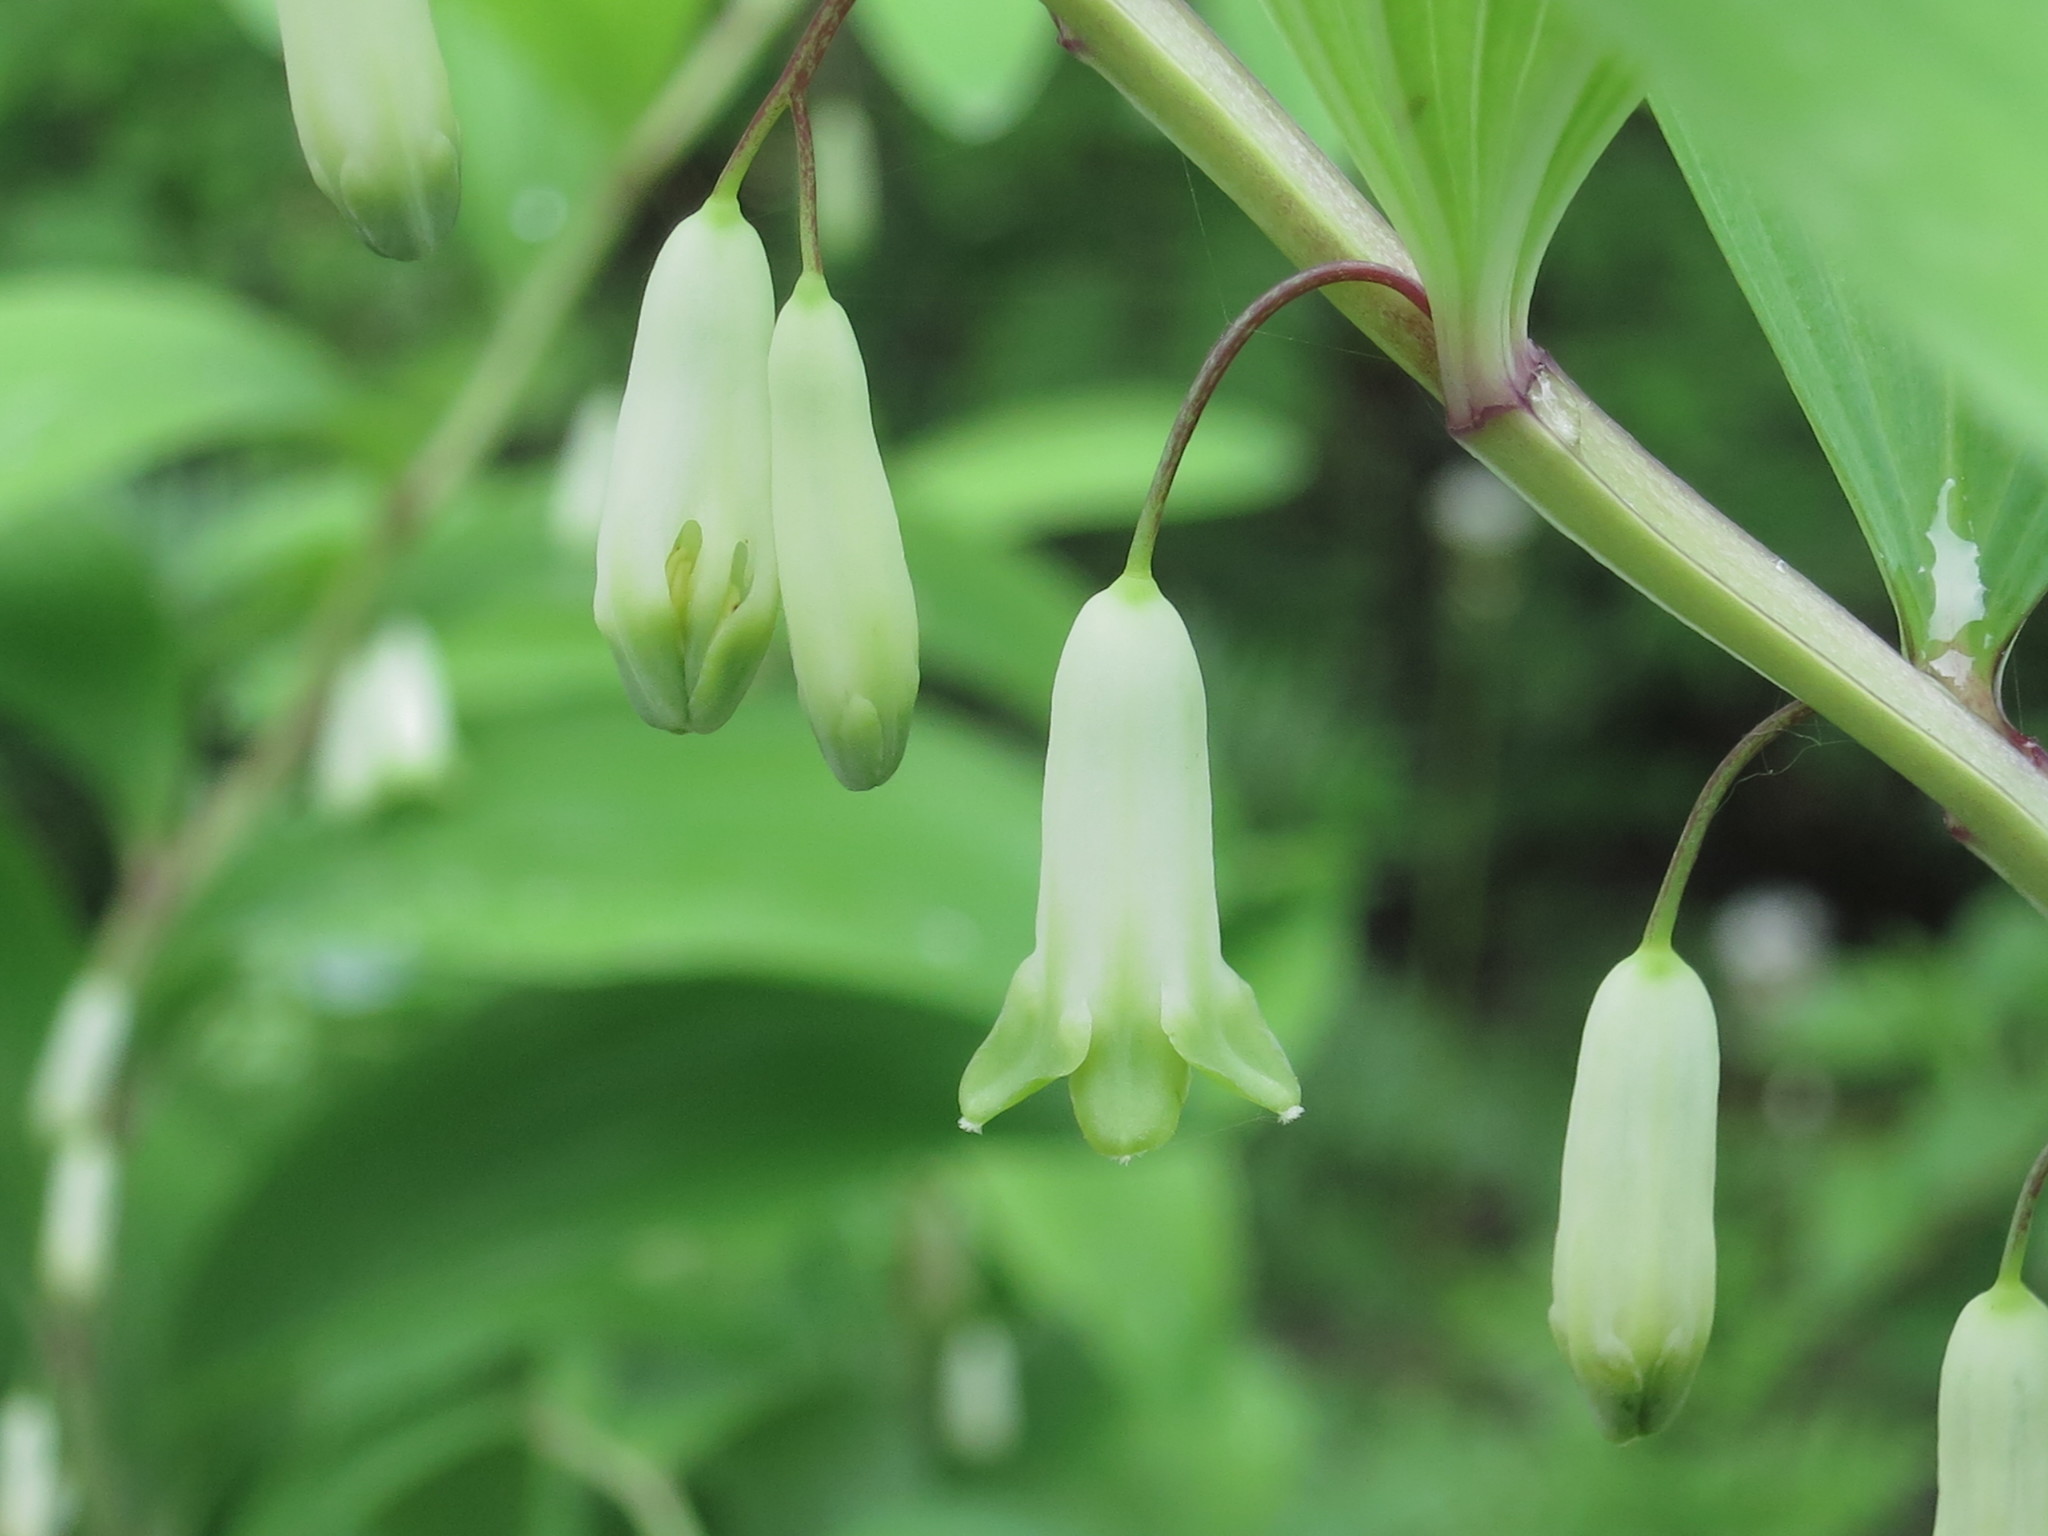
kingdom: Plantae
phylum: Tracheophyta
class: Liliopsida
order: Asparagales
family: Asparagaceae
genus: Polygonatum
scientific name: Polygonatum odoratum
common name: Angular solomon's-seal
